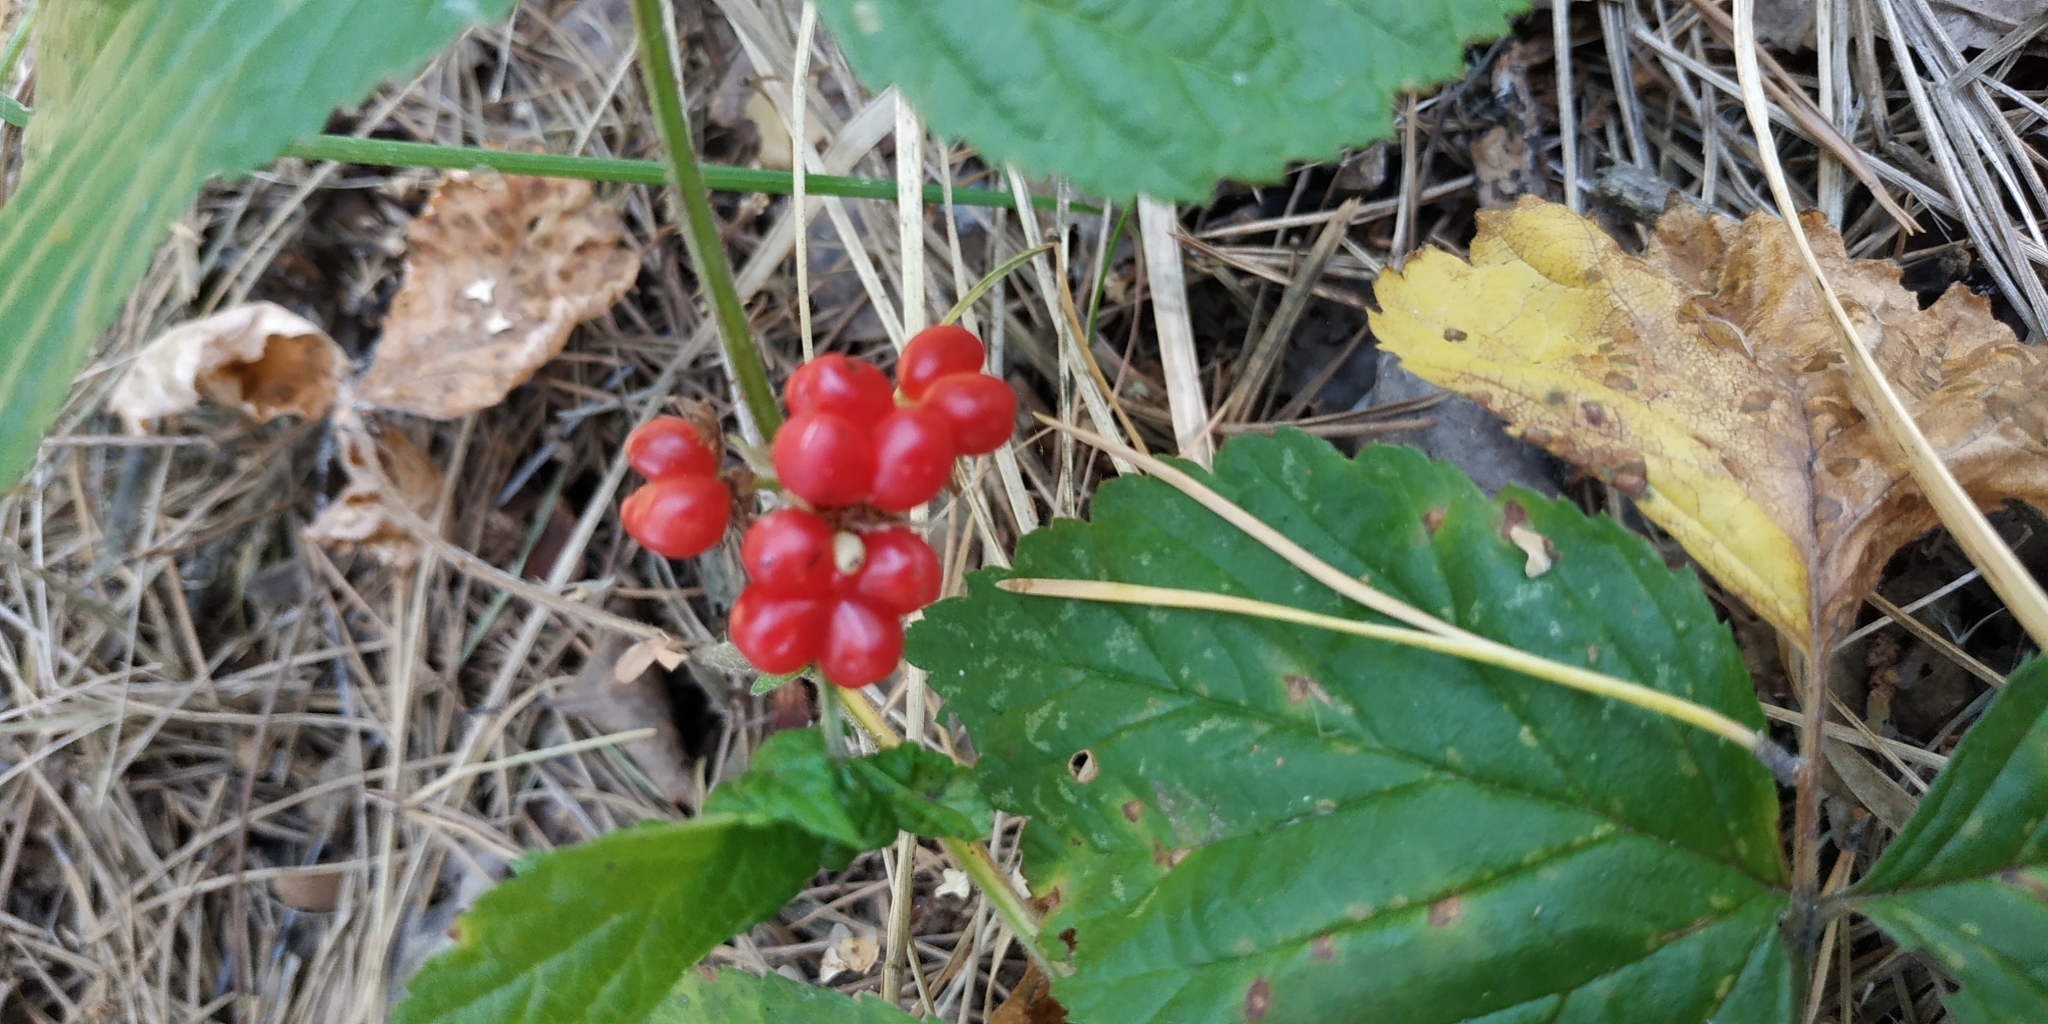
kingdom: Plantae
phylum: Tracheophyta
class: Magnoliopsida
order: Rosales
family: Rosaceae
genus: Rubus
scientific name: Rubus saxatilis
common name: Stone bramble
